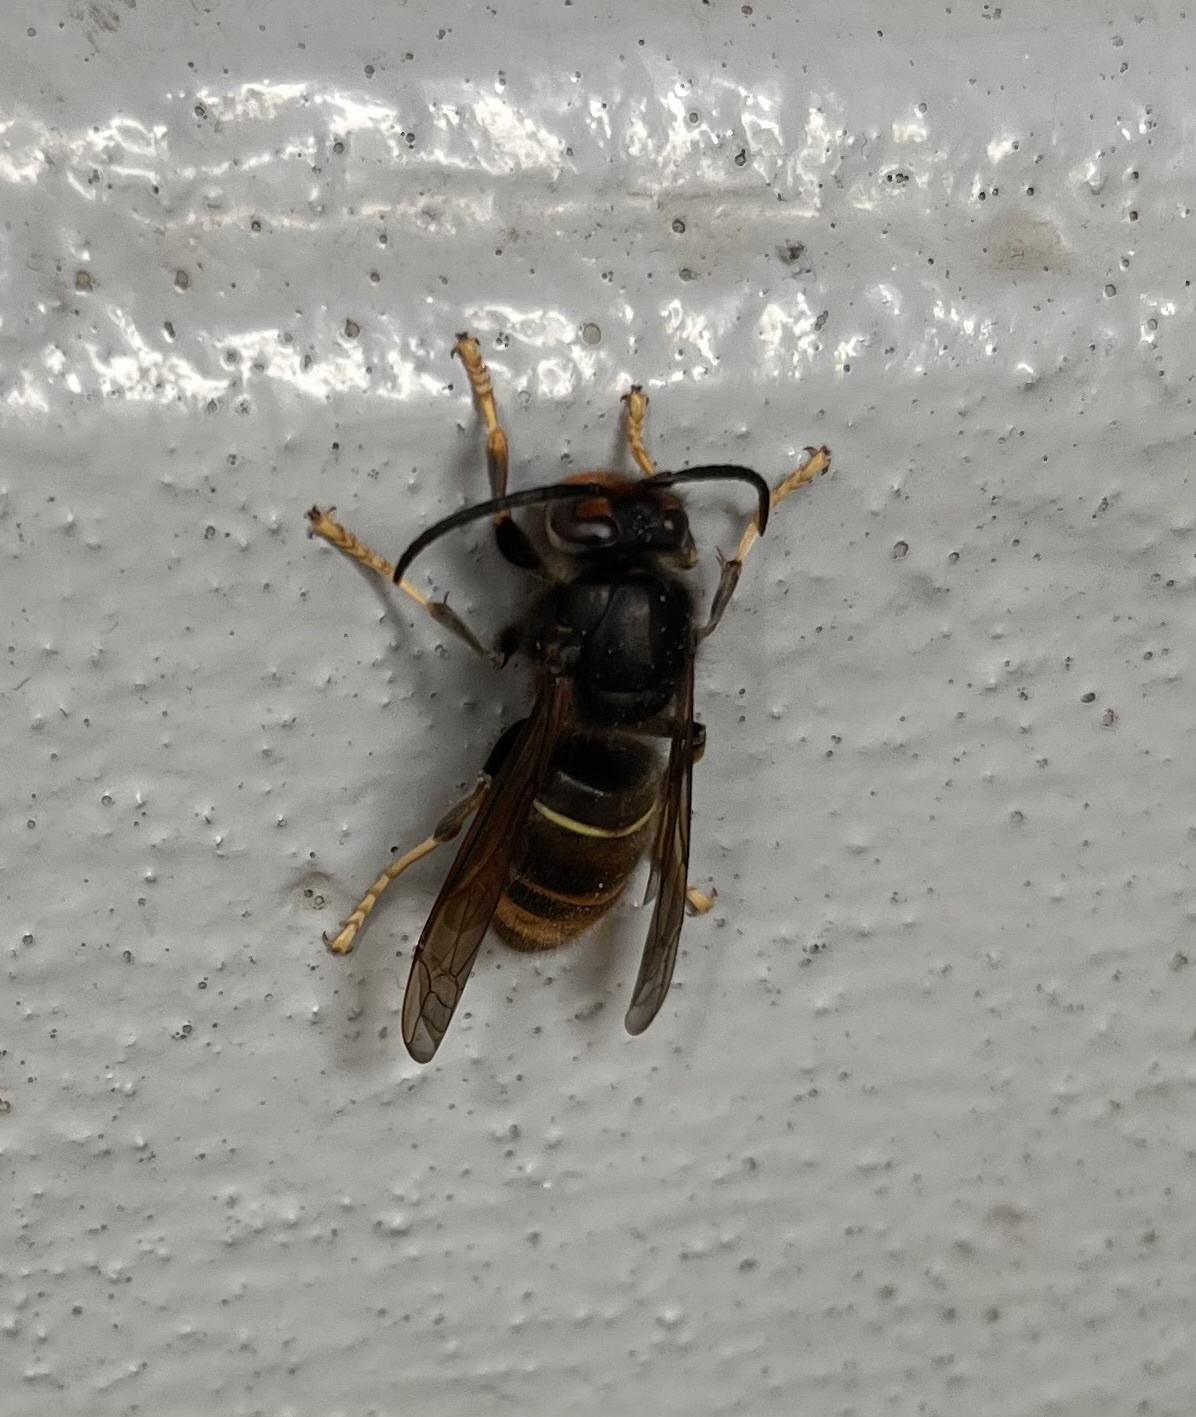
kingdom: Animalia
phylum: Arthropoda
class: Insecta
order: Hymenoptera
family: Vespidae
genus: Vespa
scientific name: Vespa velutina
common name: Asian hornet
